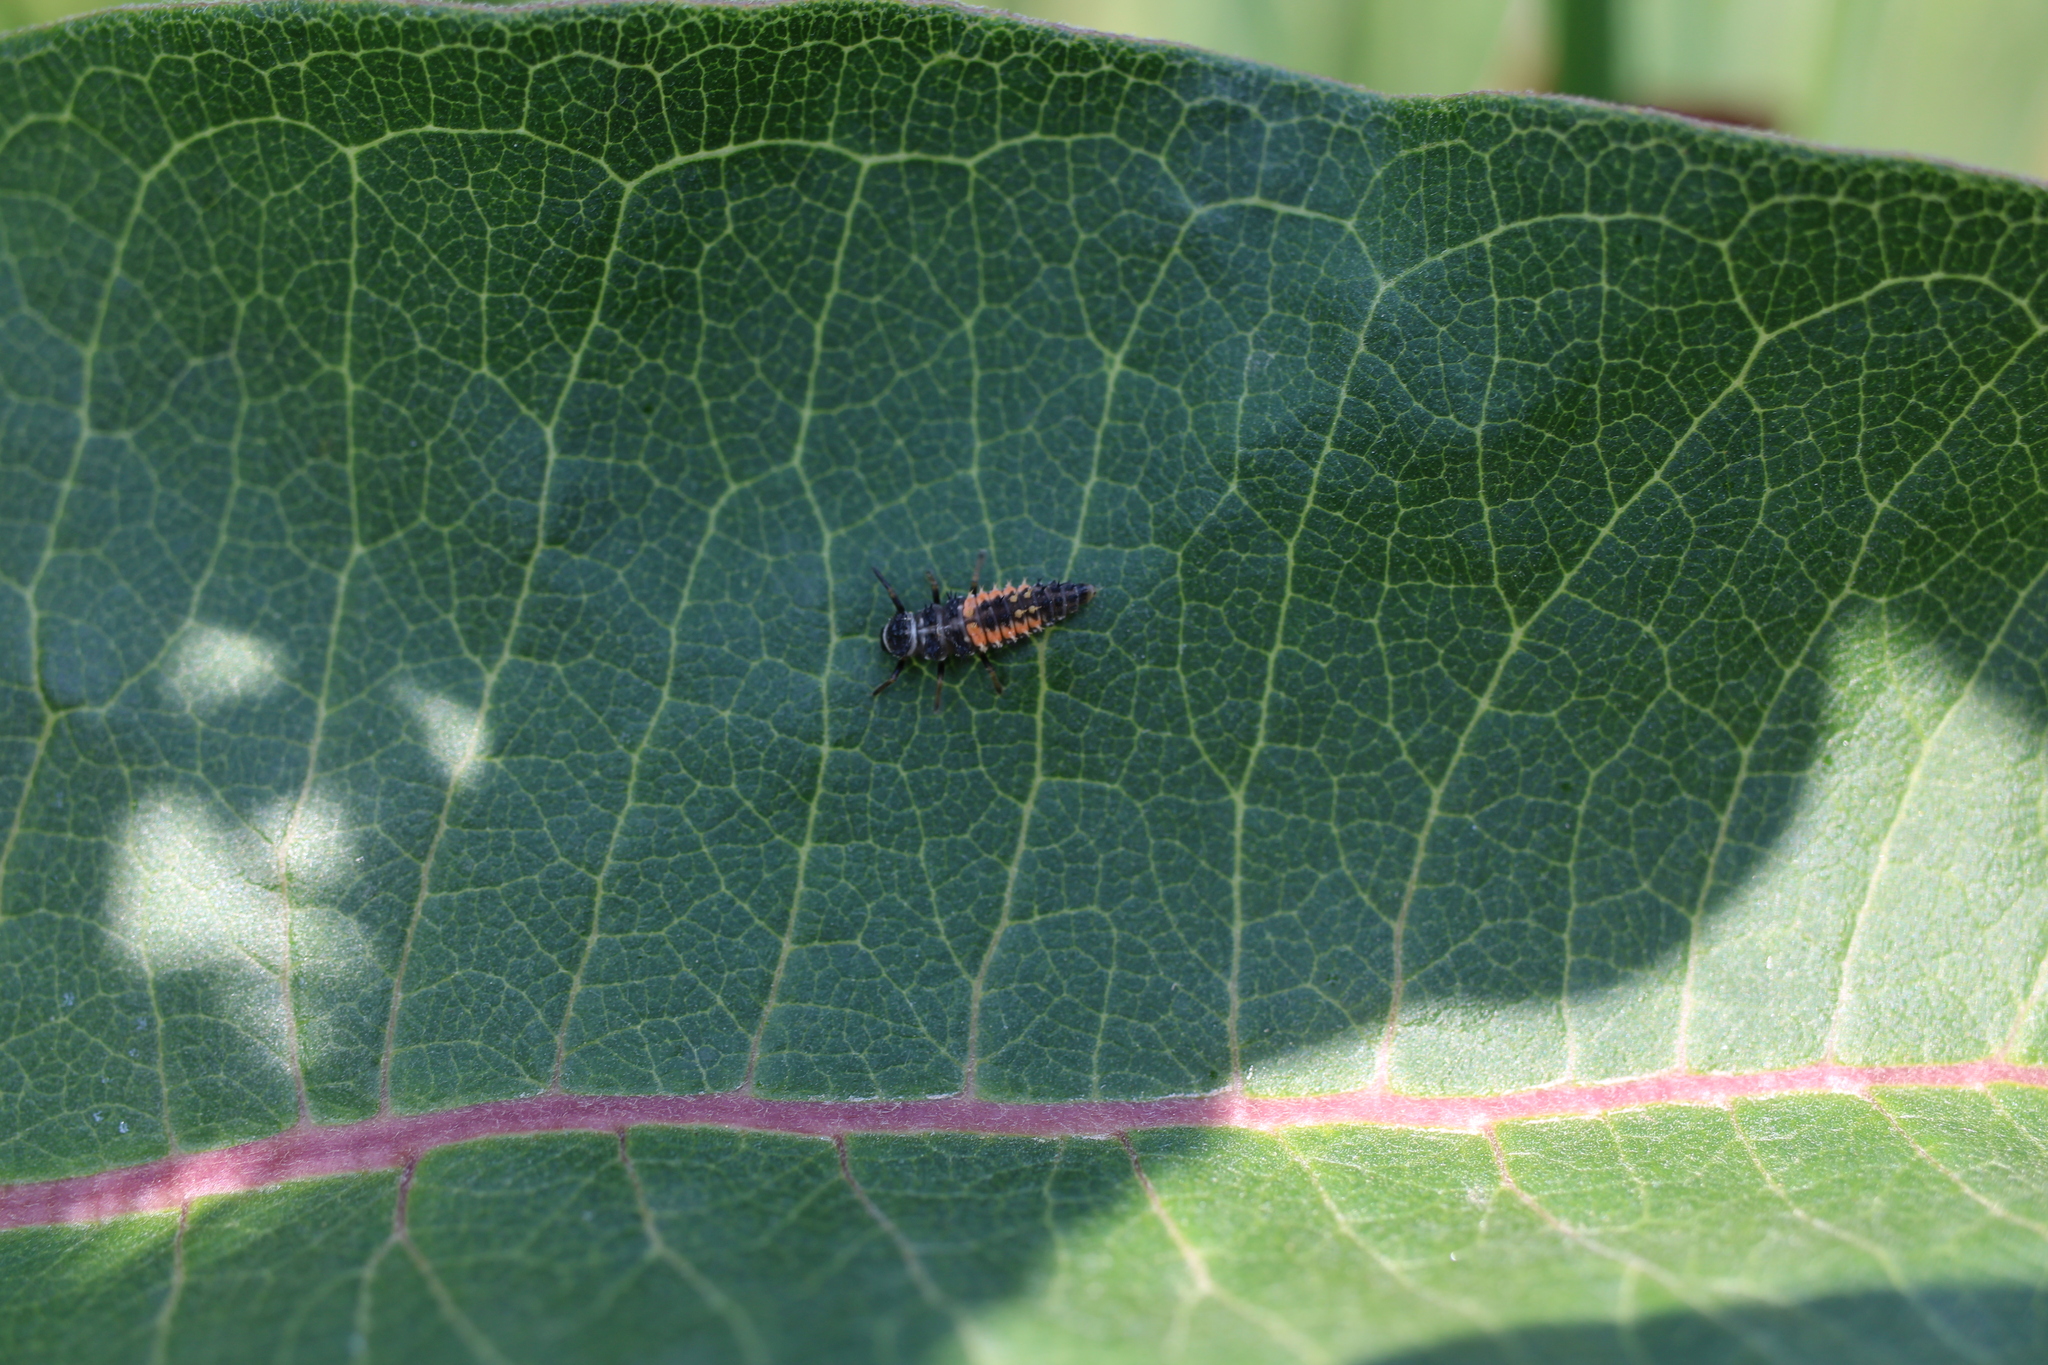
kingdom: Animalia
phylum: Arthropoda
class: Insecta
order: Coleoptera
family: Coccinellidae
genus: Harmonia
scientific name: Harmonia axyridis
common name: Harlequin ladybird
